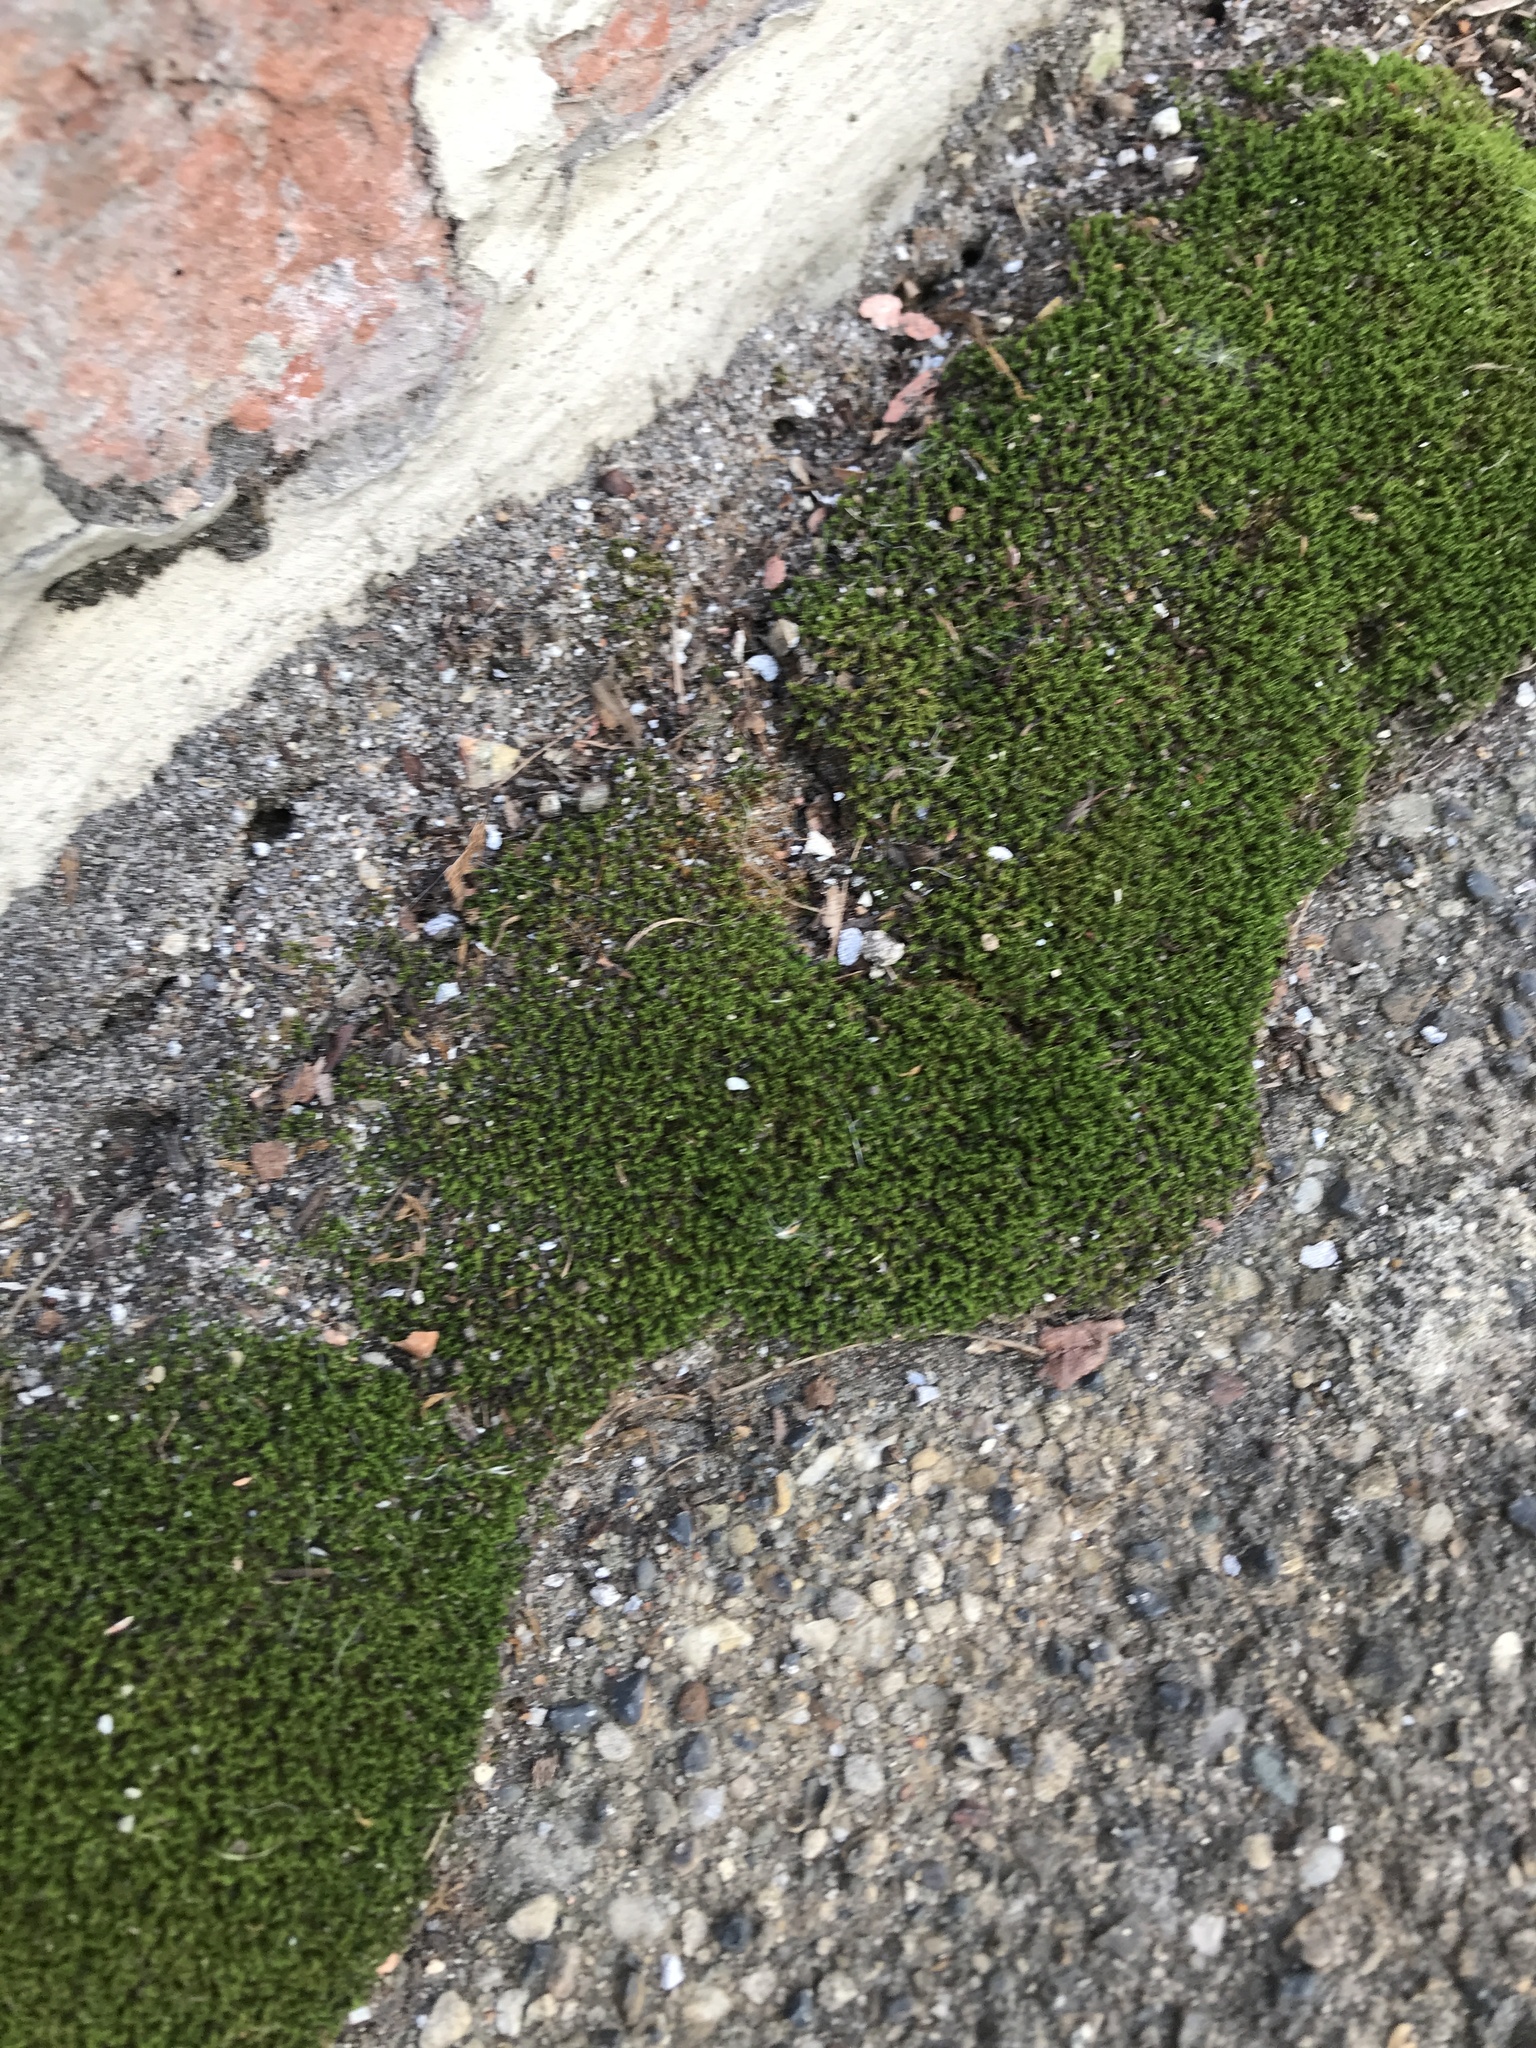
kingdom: Plantae
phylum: Bryophyta
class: Bryopsida
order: Bryales
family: Bryaceae
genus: Bryum
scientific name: Bryum argenteum
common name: Silver-moss
